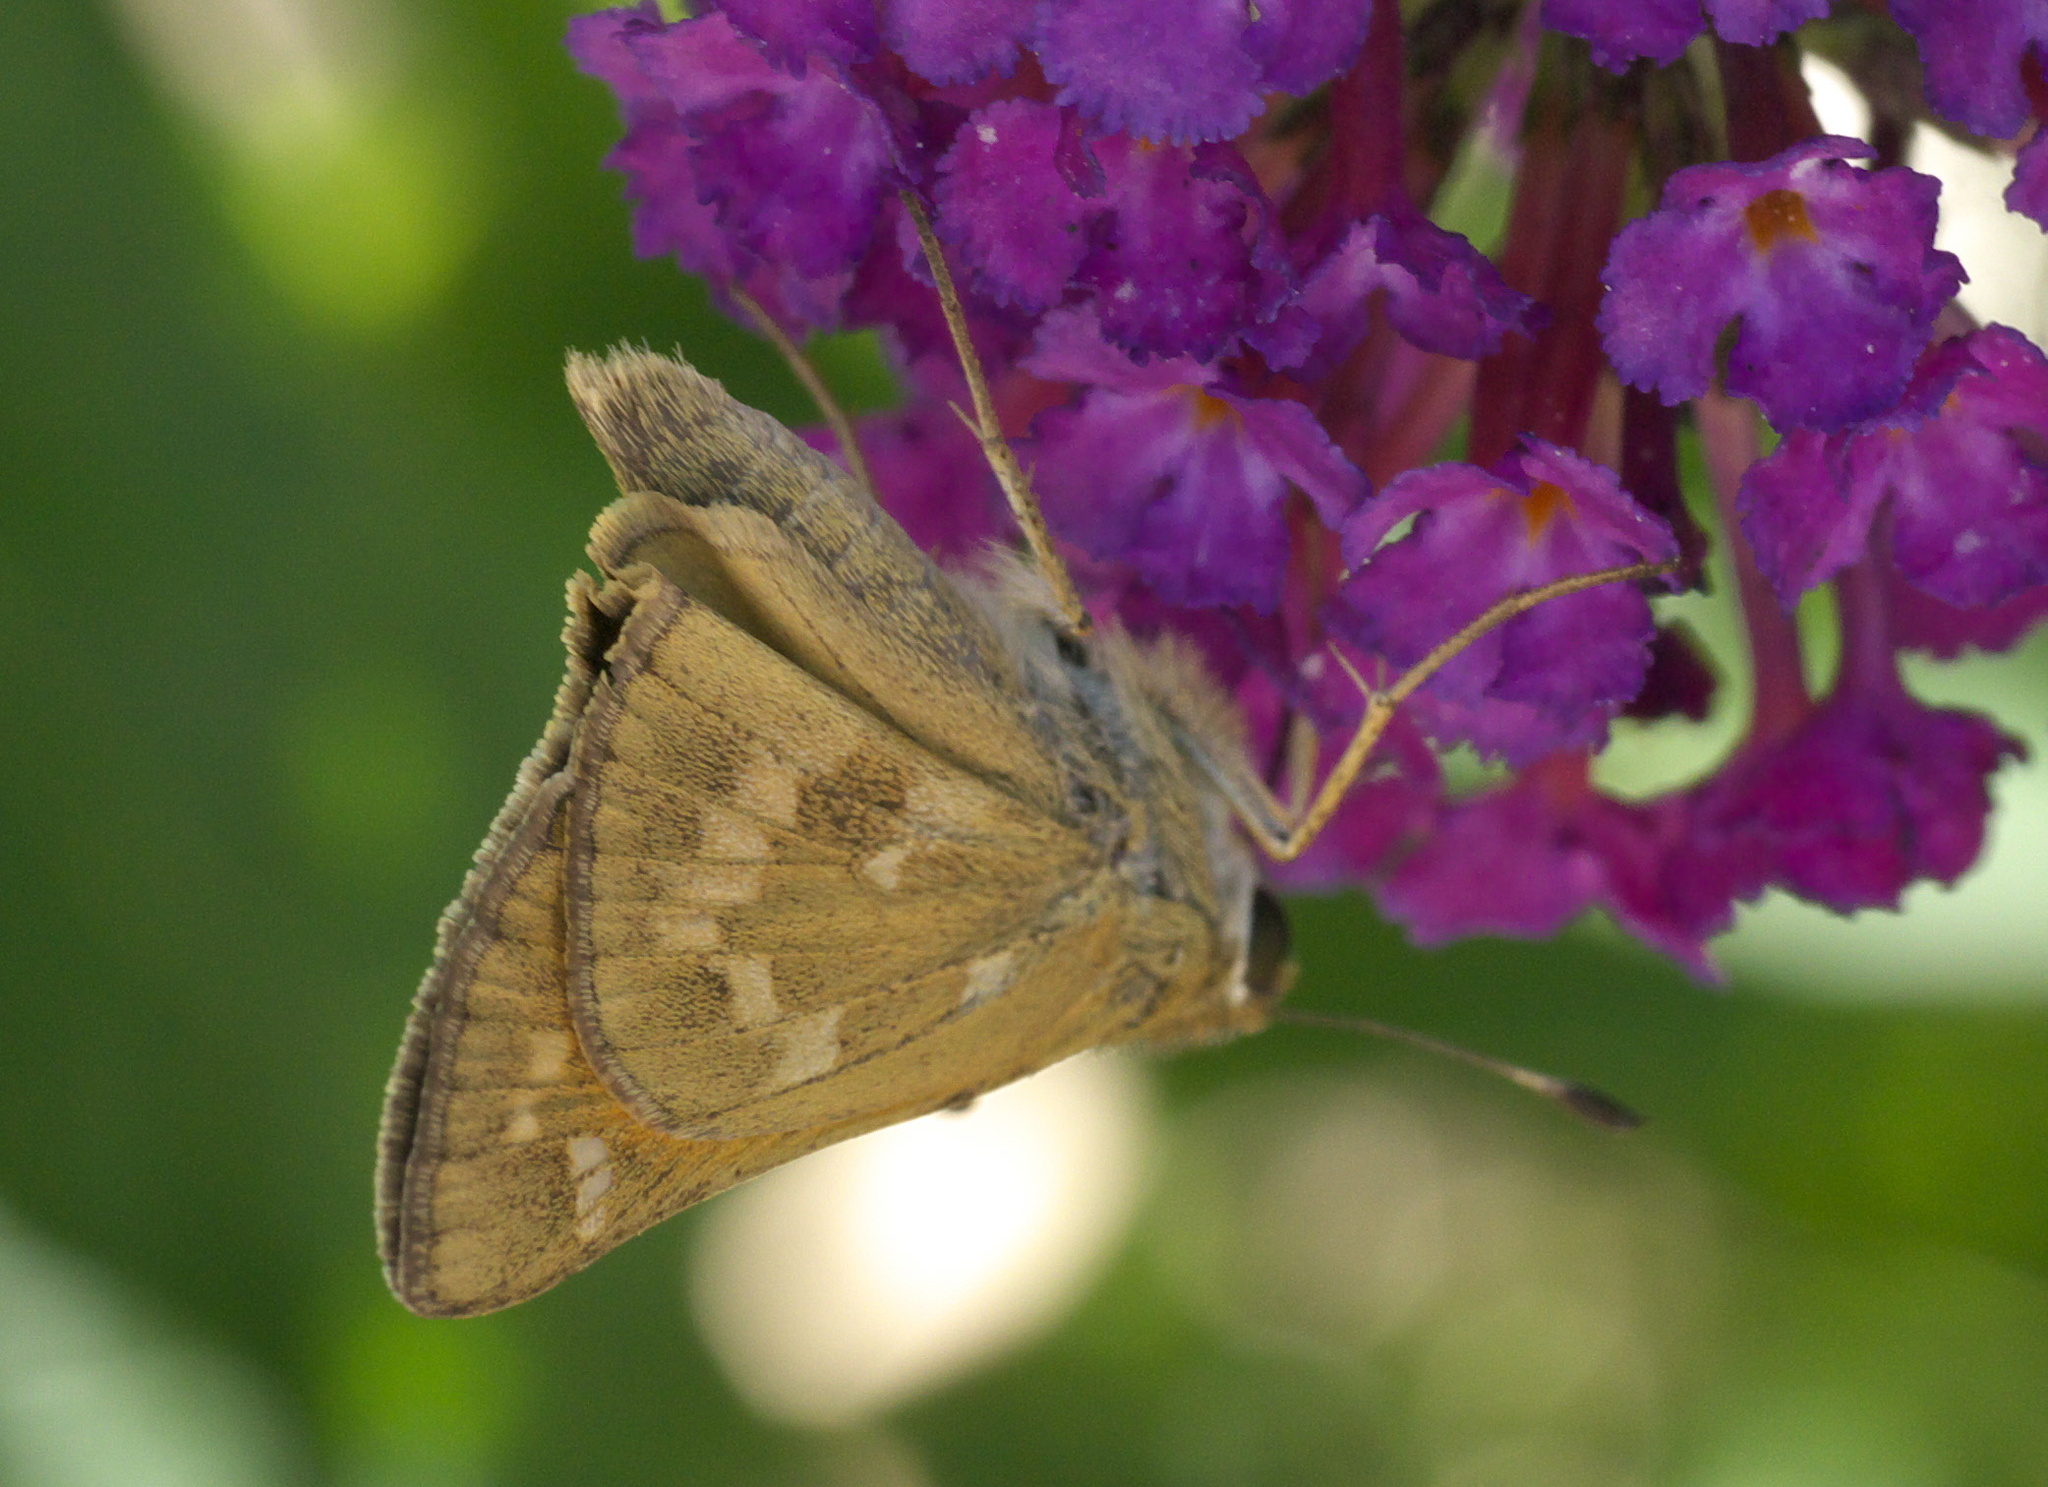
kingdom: Animalia
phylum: Arthropoda
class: Insecta
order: Lepidoptera
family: Hesperiidae
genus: Atalopedes
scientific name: Atalopedes
